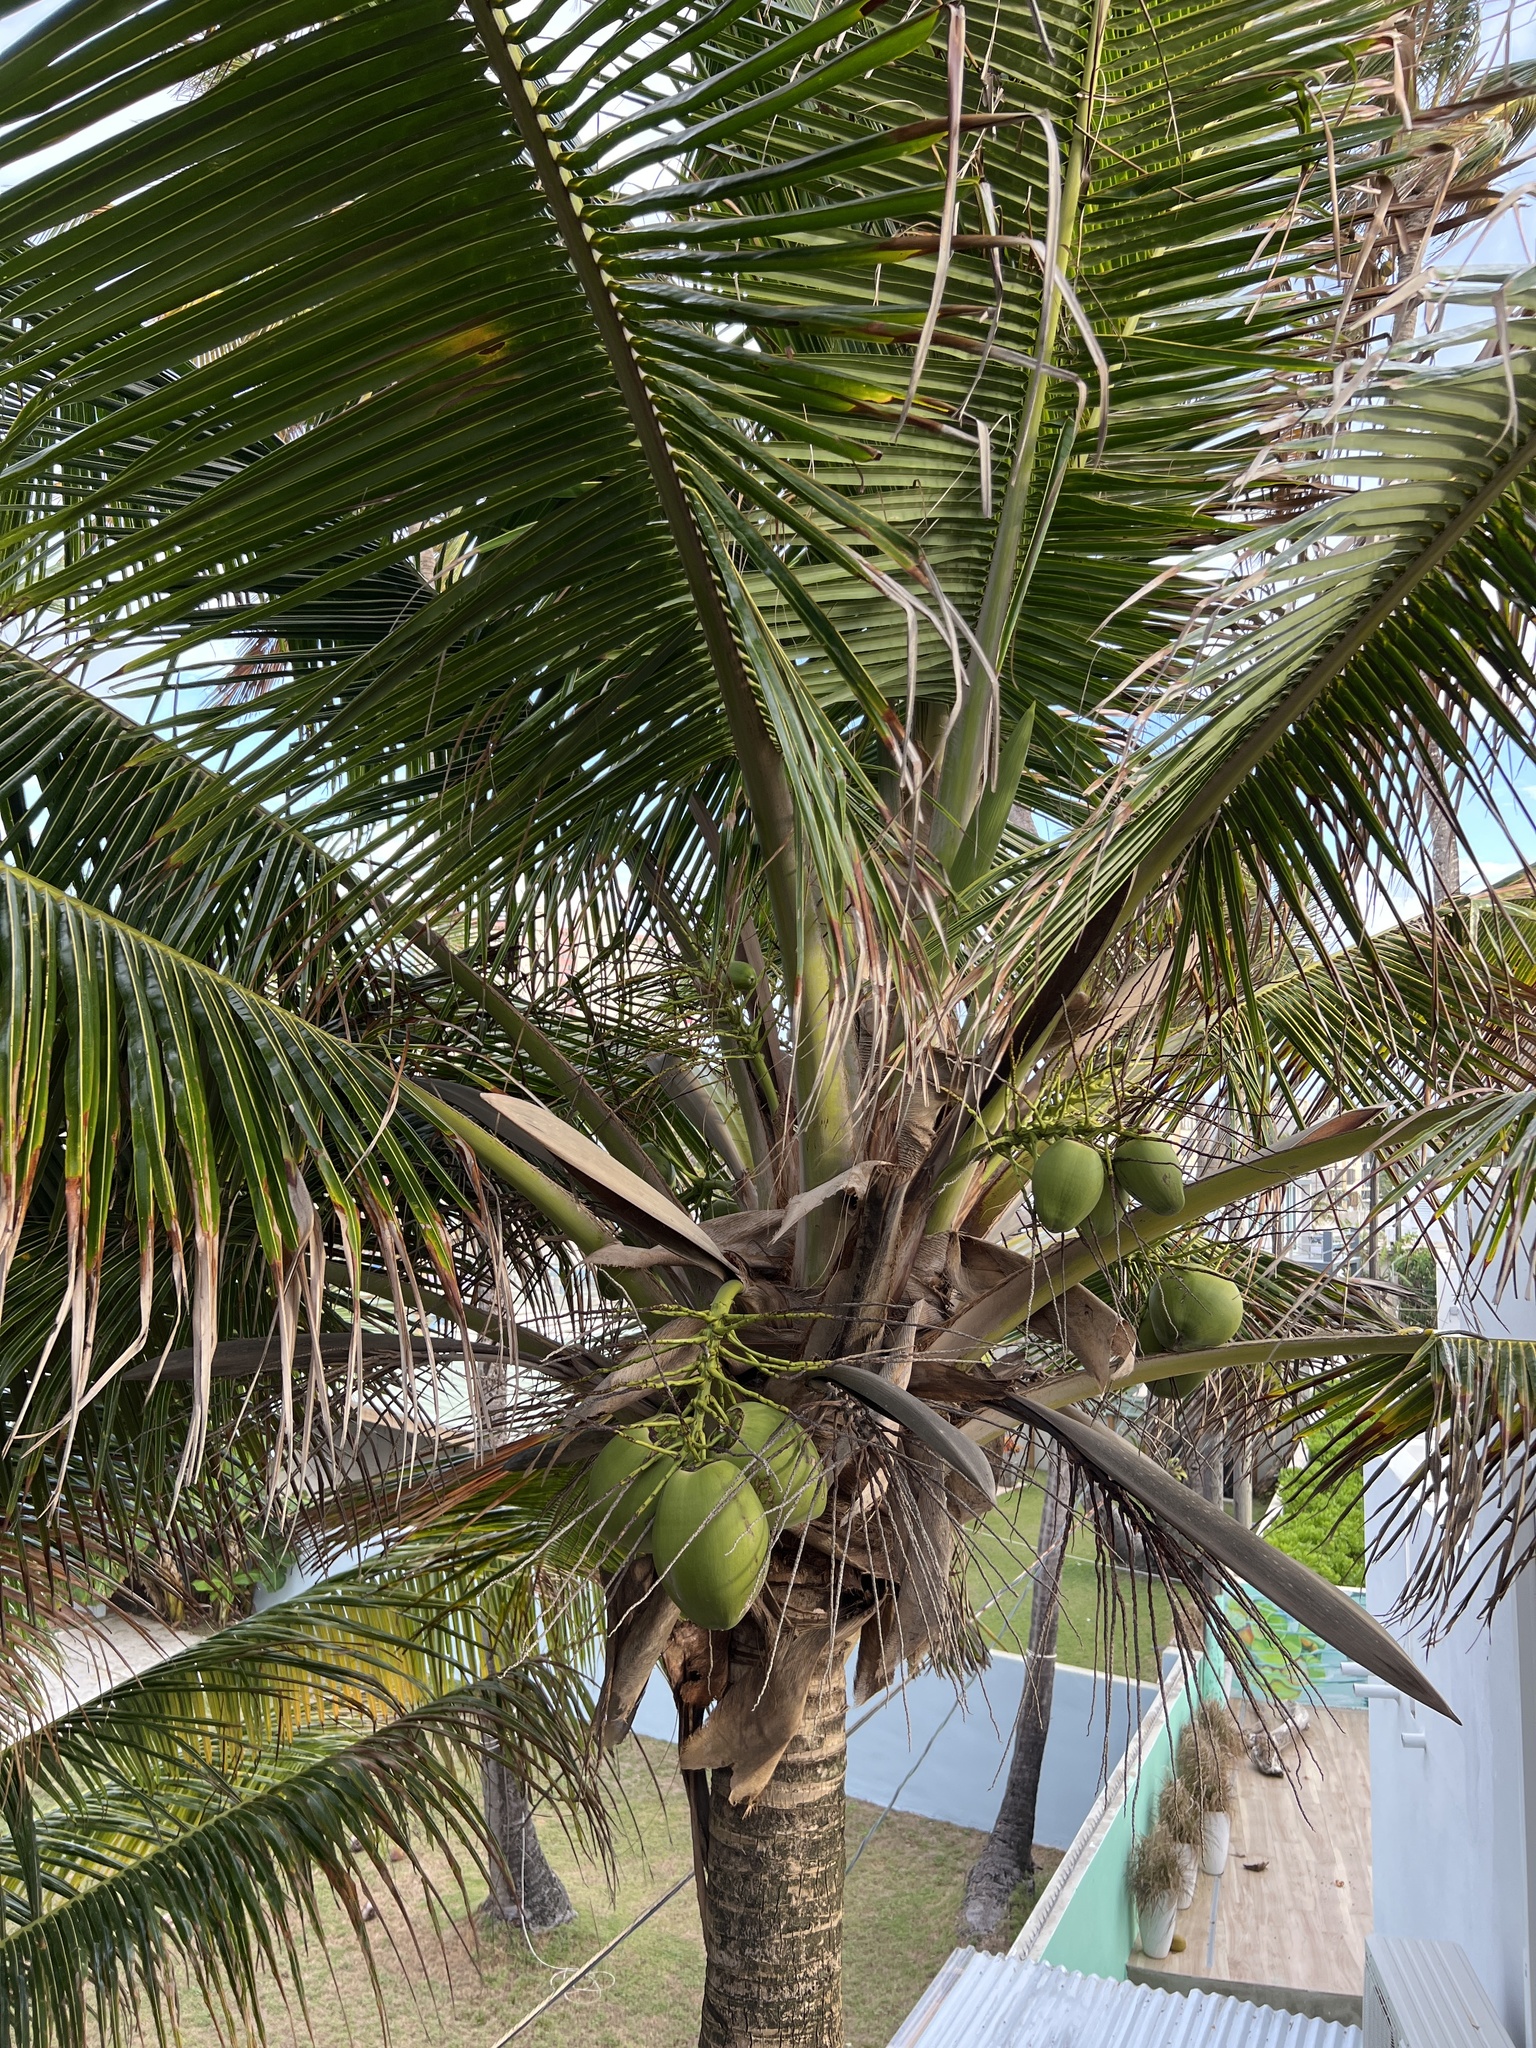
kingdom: Plantae
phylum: Tracheophyta
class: Liliopsida
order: Arecales
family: Arecaceae
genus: Cocos
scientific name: Cocos nucifera
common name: Coconut palm
